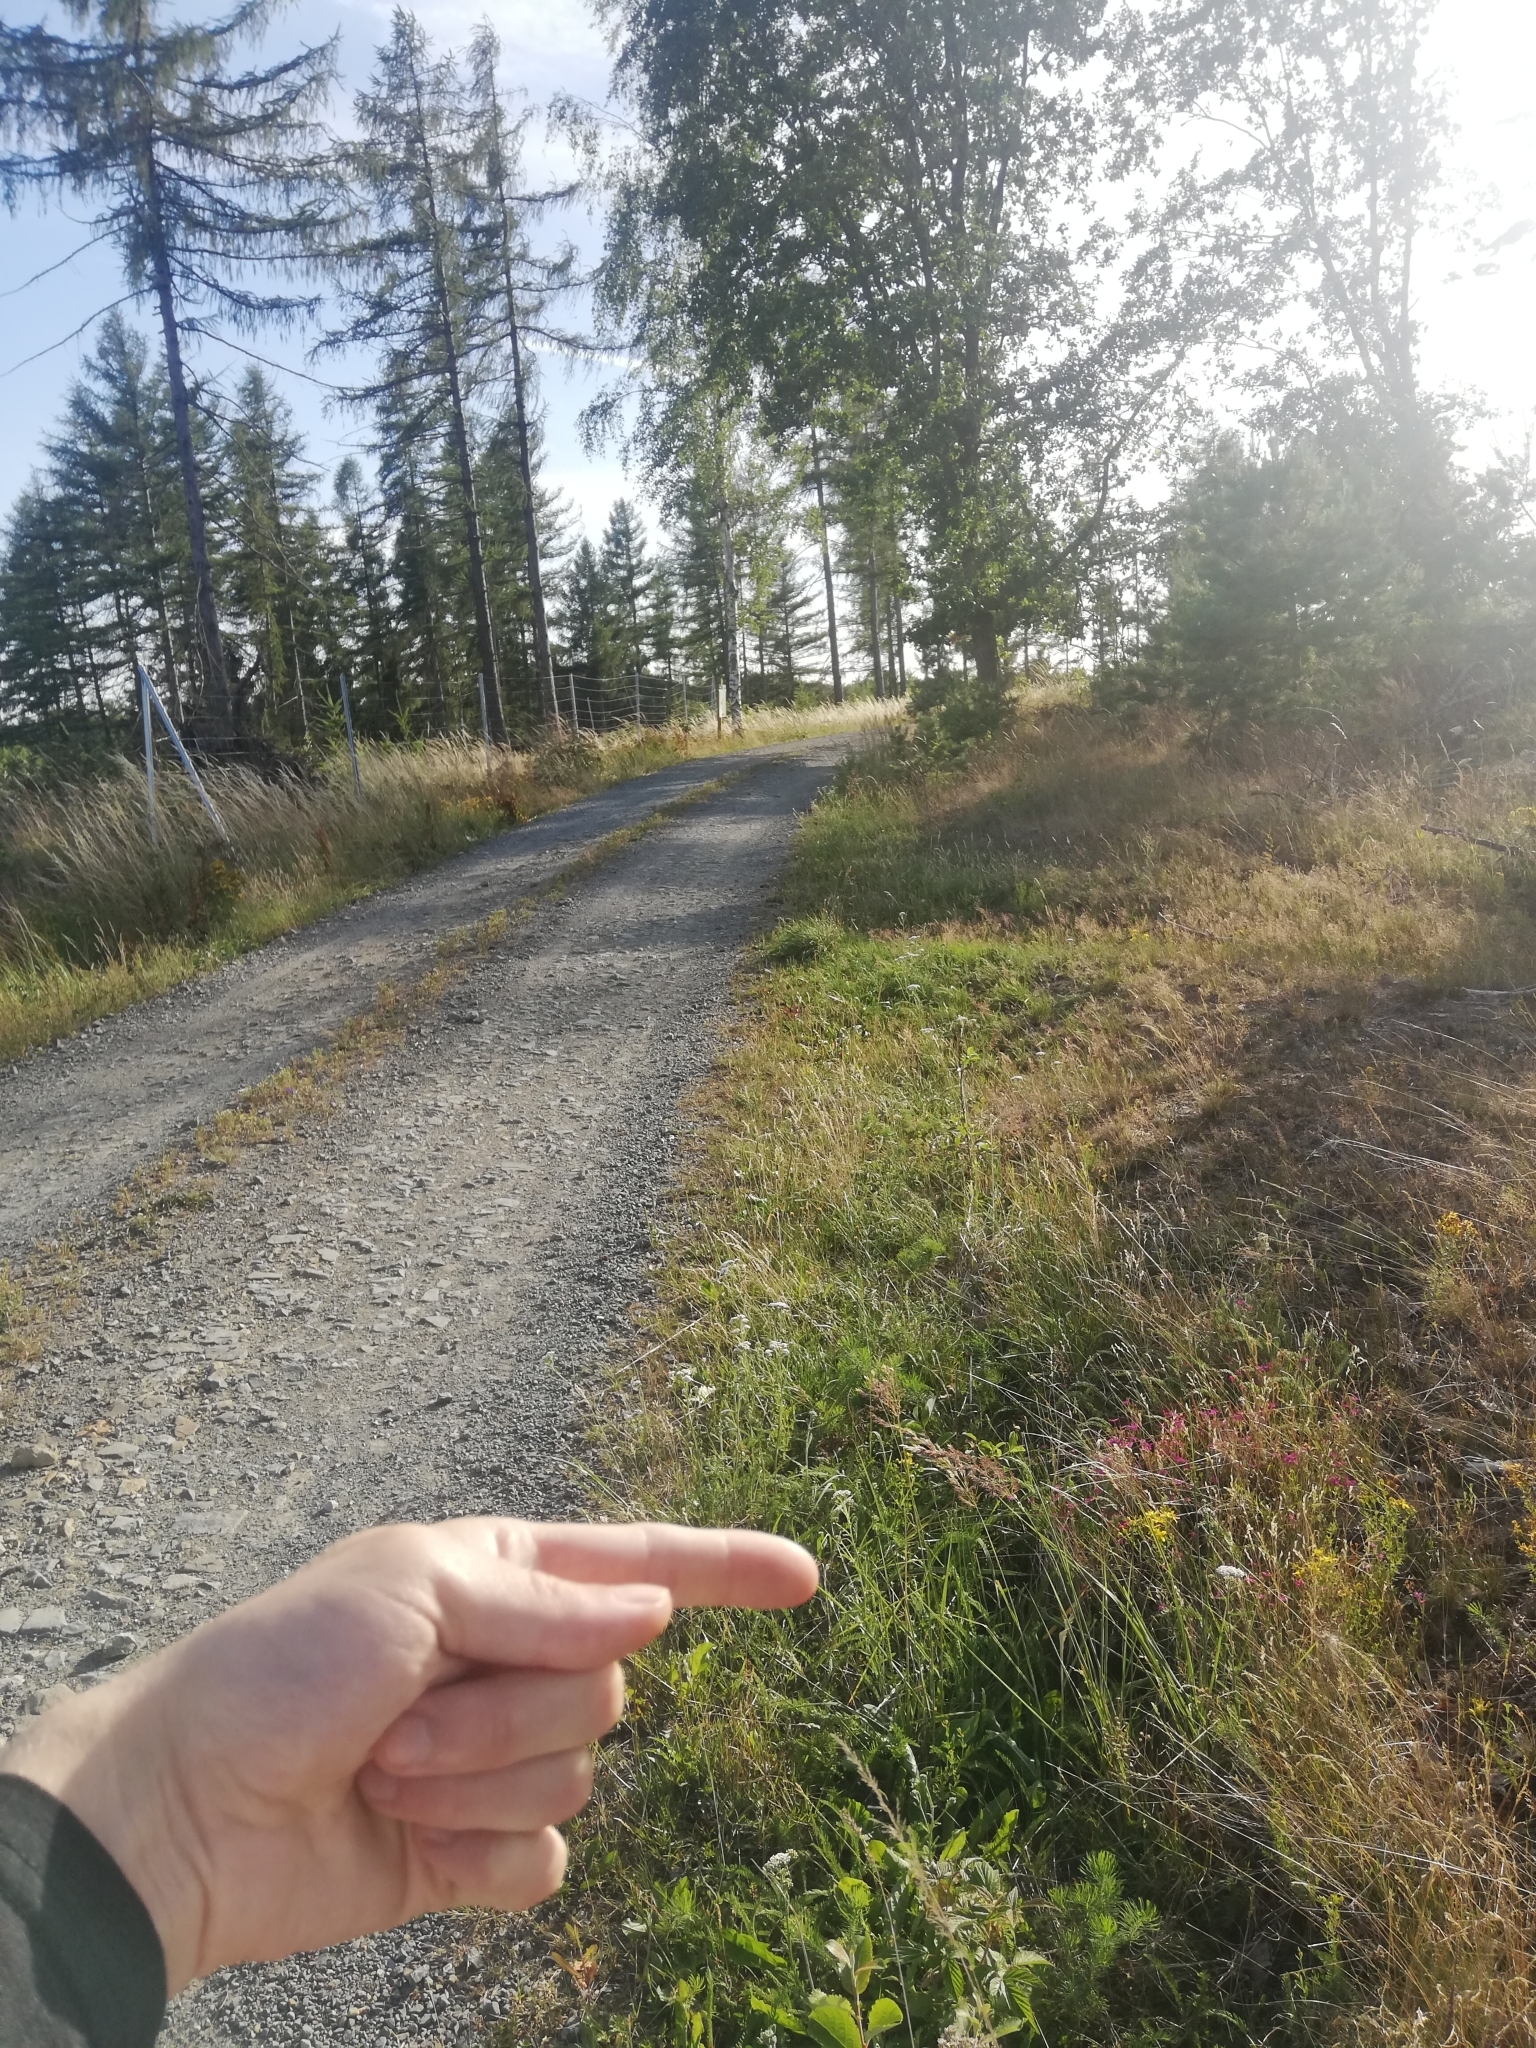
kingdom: Plantae
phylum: Tracheophyta
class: Magnoliopsida
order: Caryophyllales
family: Caryophyllaceae
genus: Dianthus
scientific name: Dianthus deltoides
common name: Maiden pink
